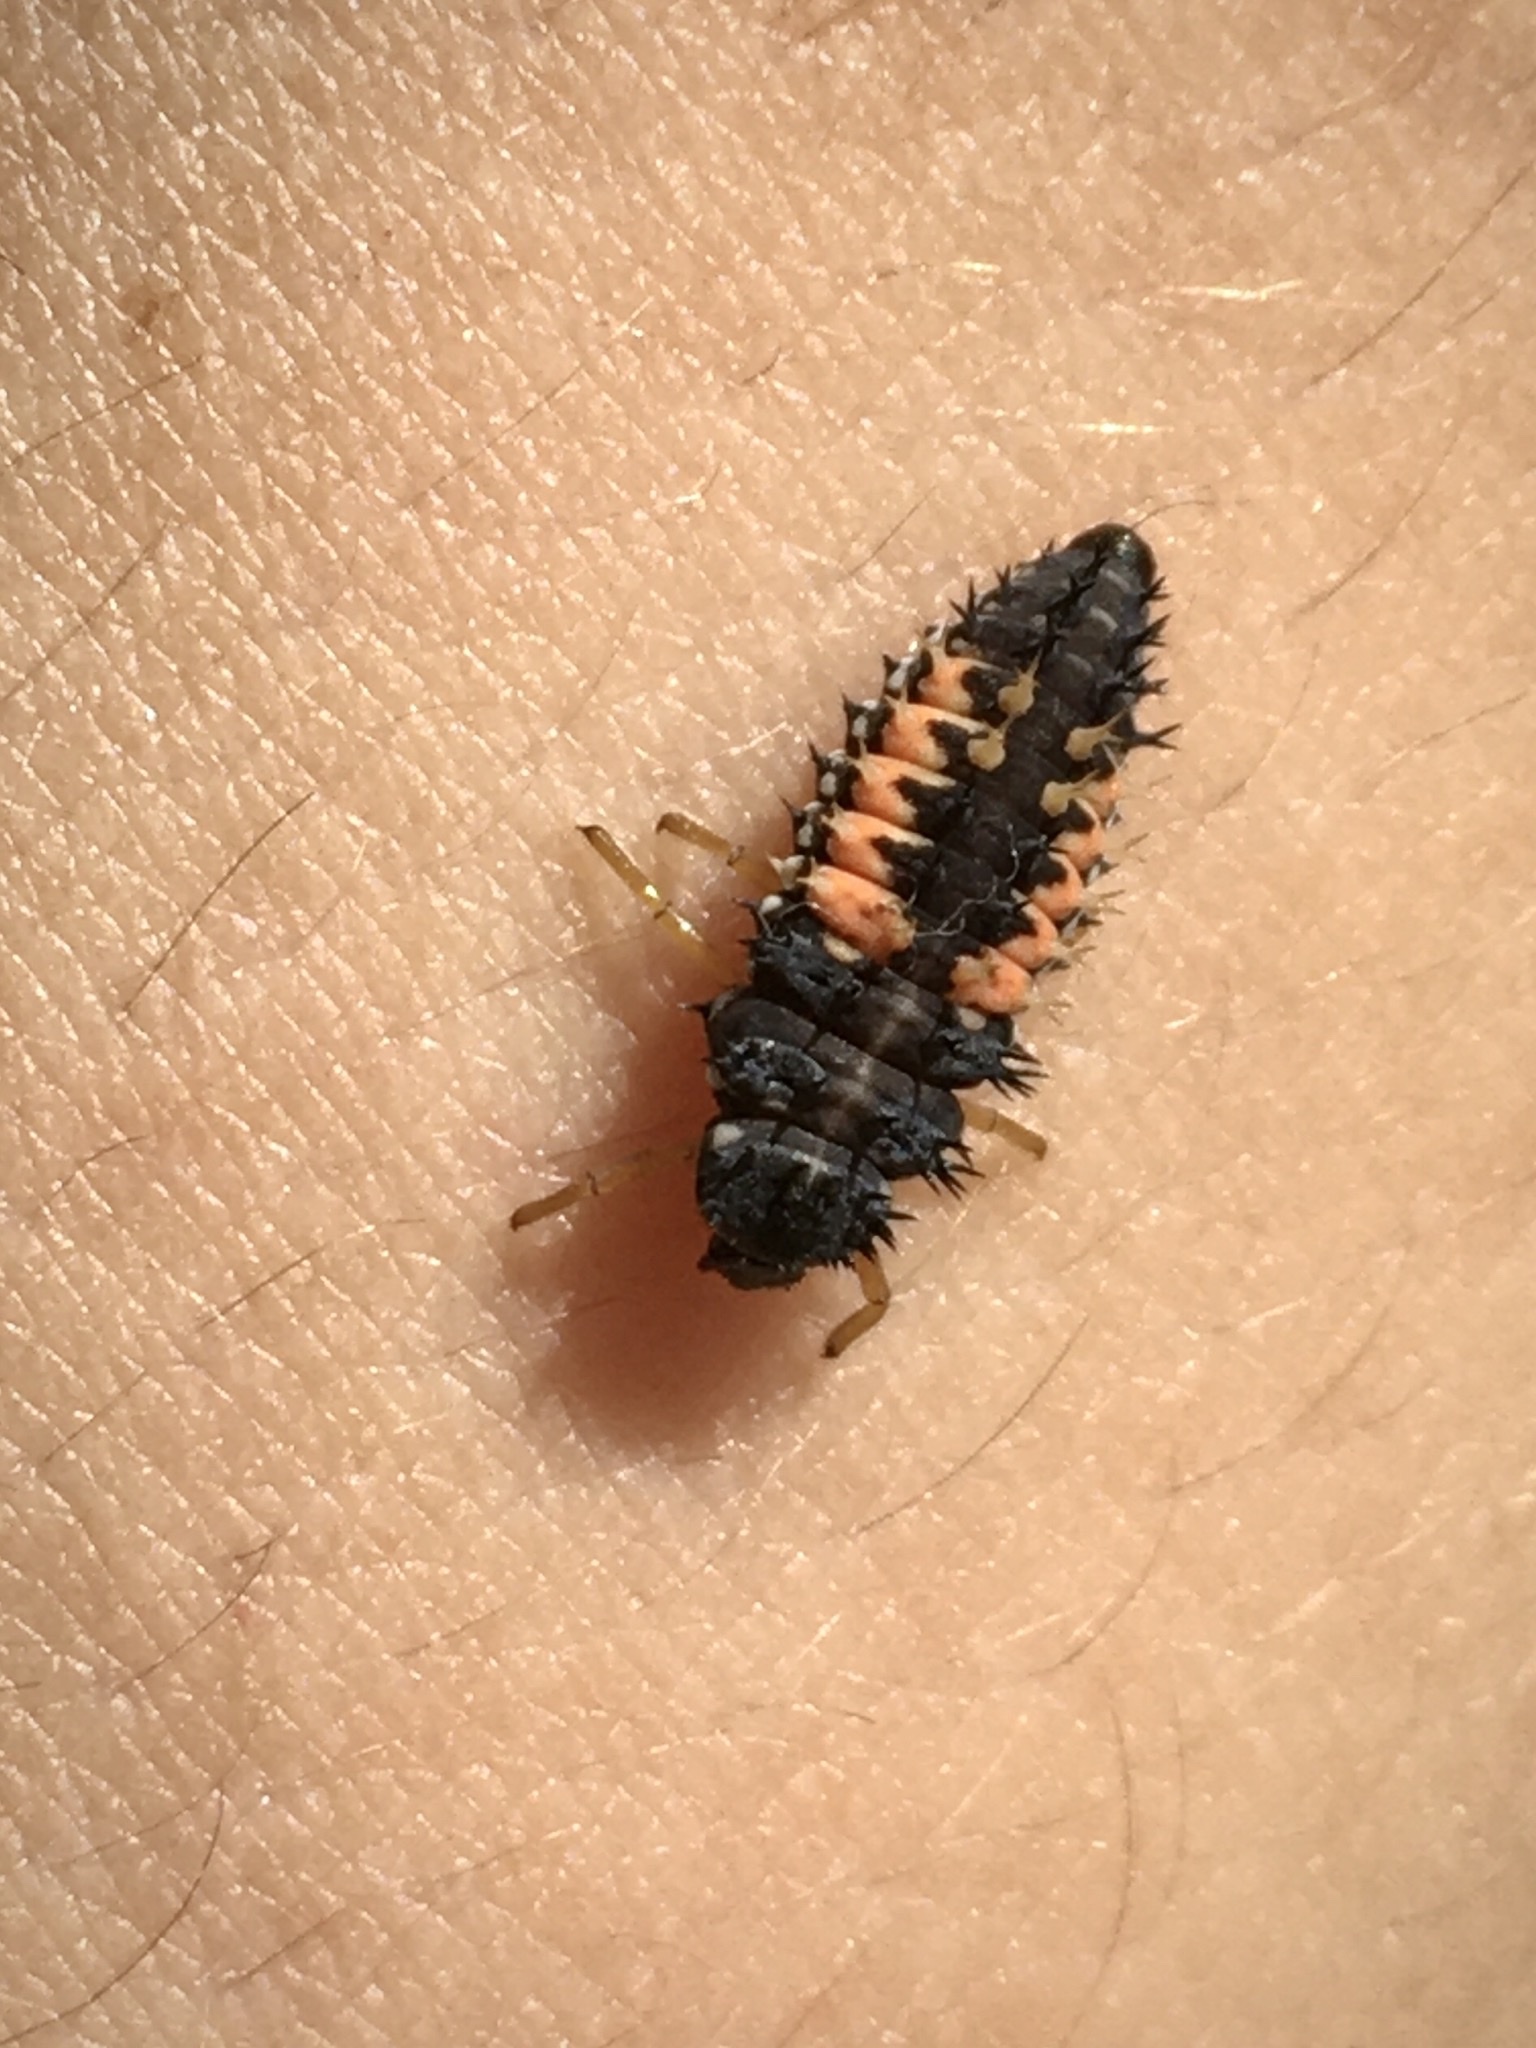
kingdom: Animalia
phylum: Arthropoda
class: Insecta
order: Coleoptera
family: Coccinellidae
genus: Harmonia
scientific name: Harmonia axyridis
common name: Harlequin ladybird
